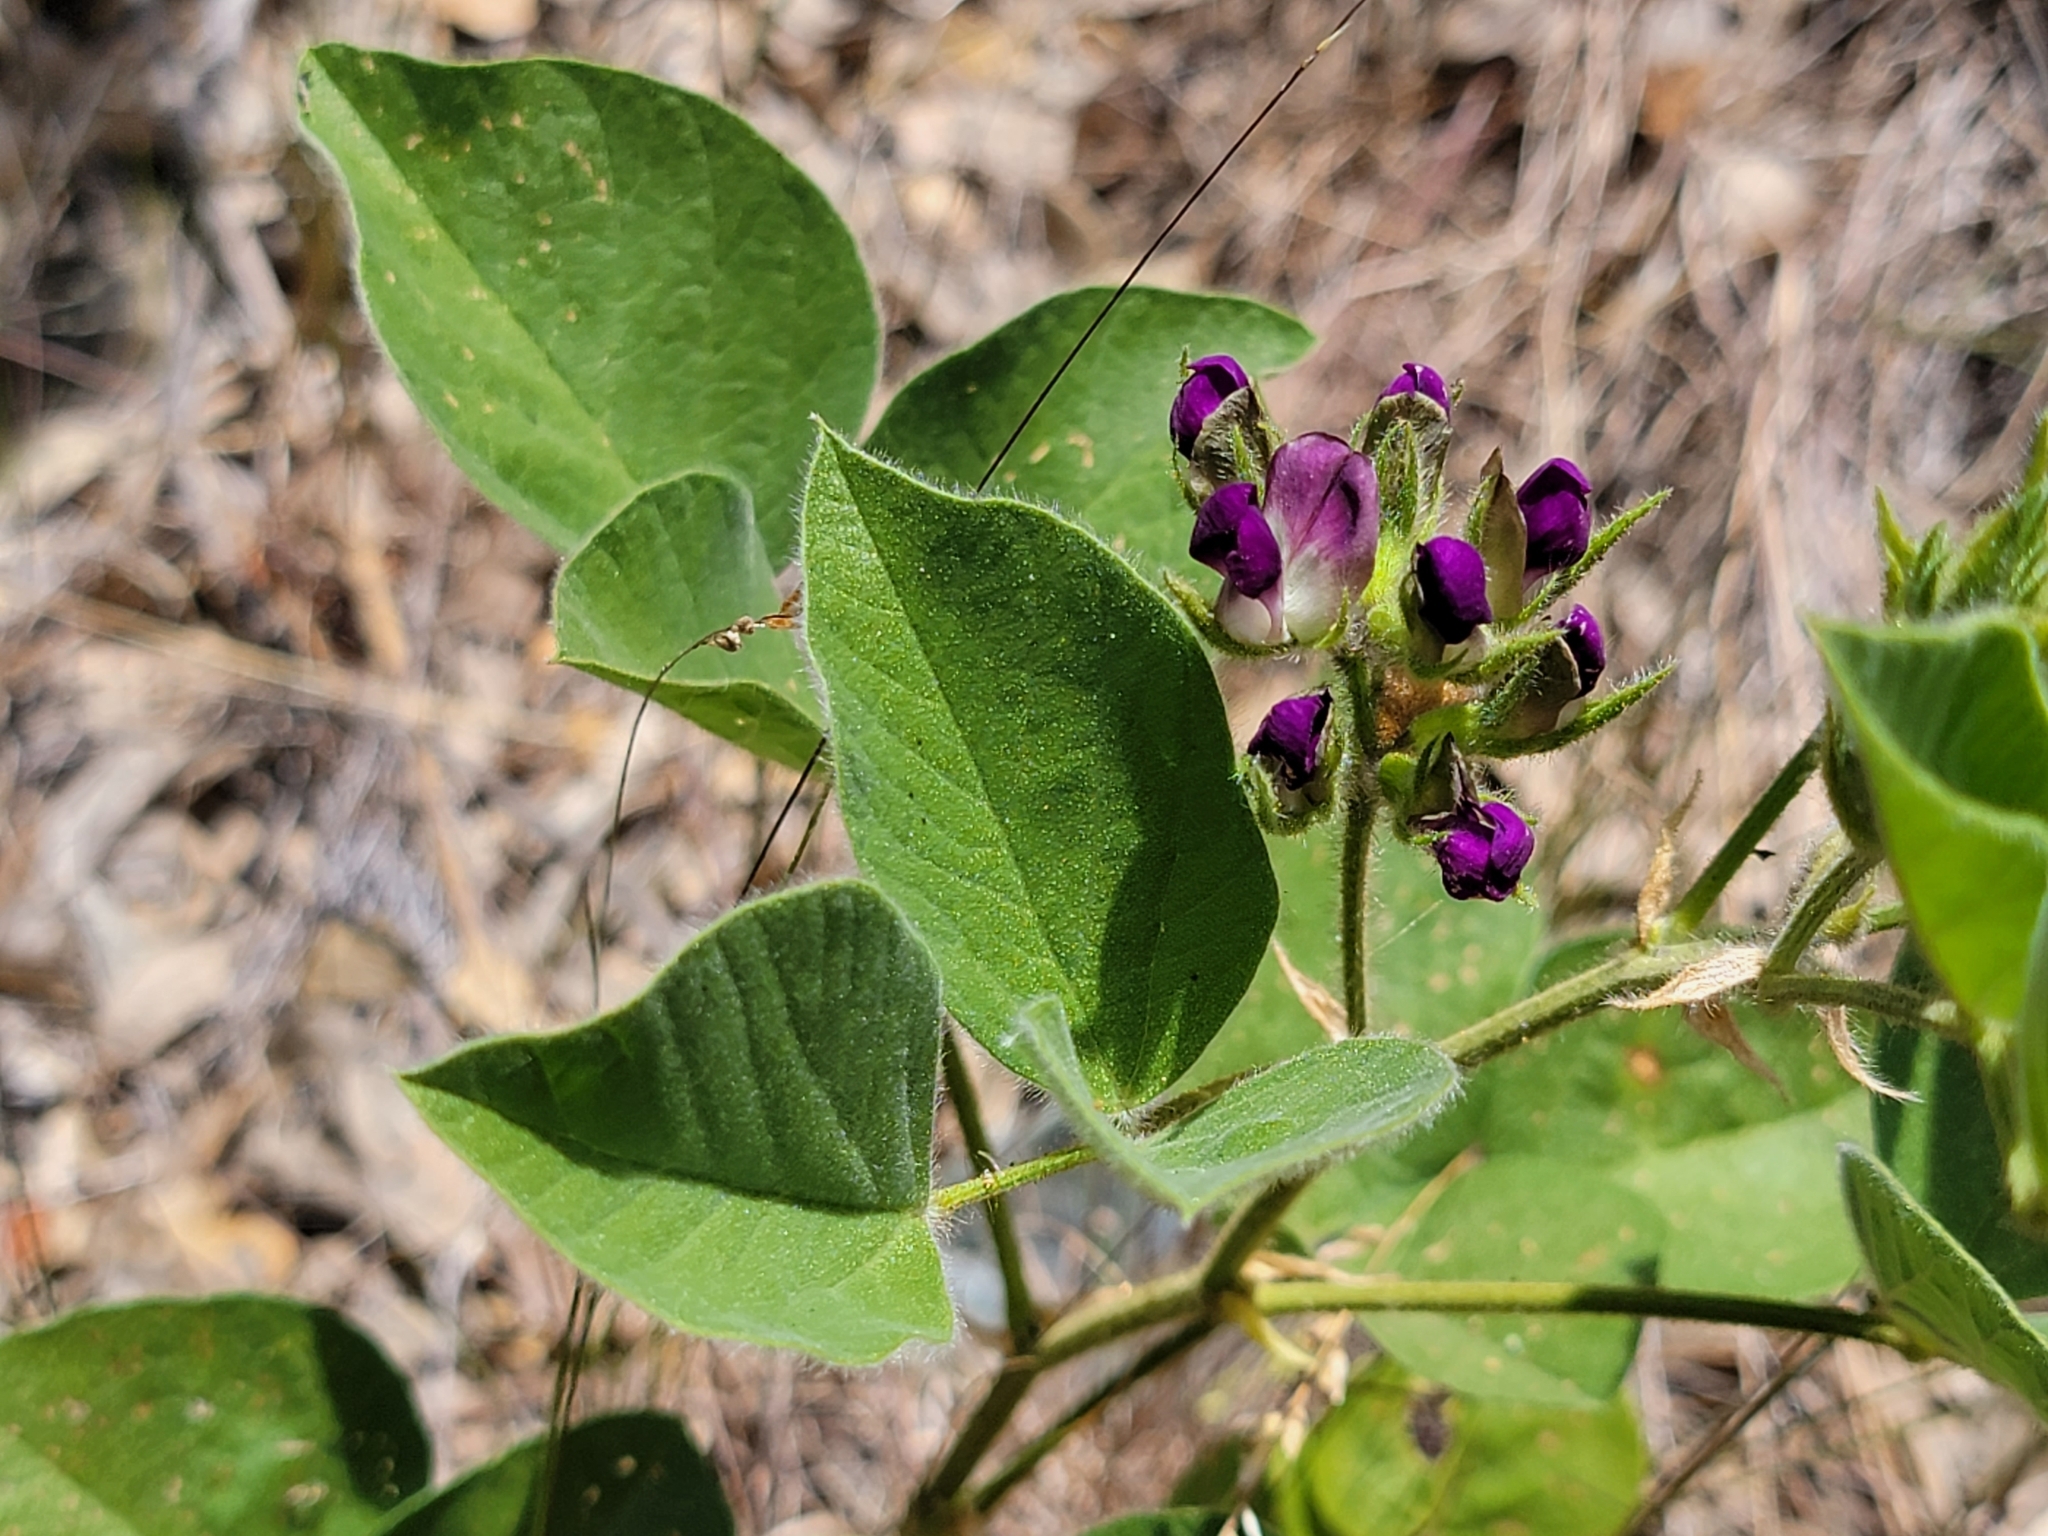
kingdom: Plantae
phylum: Tracheophyta
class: Magnoliopsida
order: Fabales
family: Fabaceae
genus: Hoita
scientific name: Hoita strobilina
